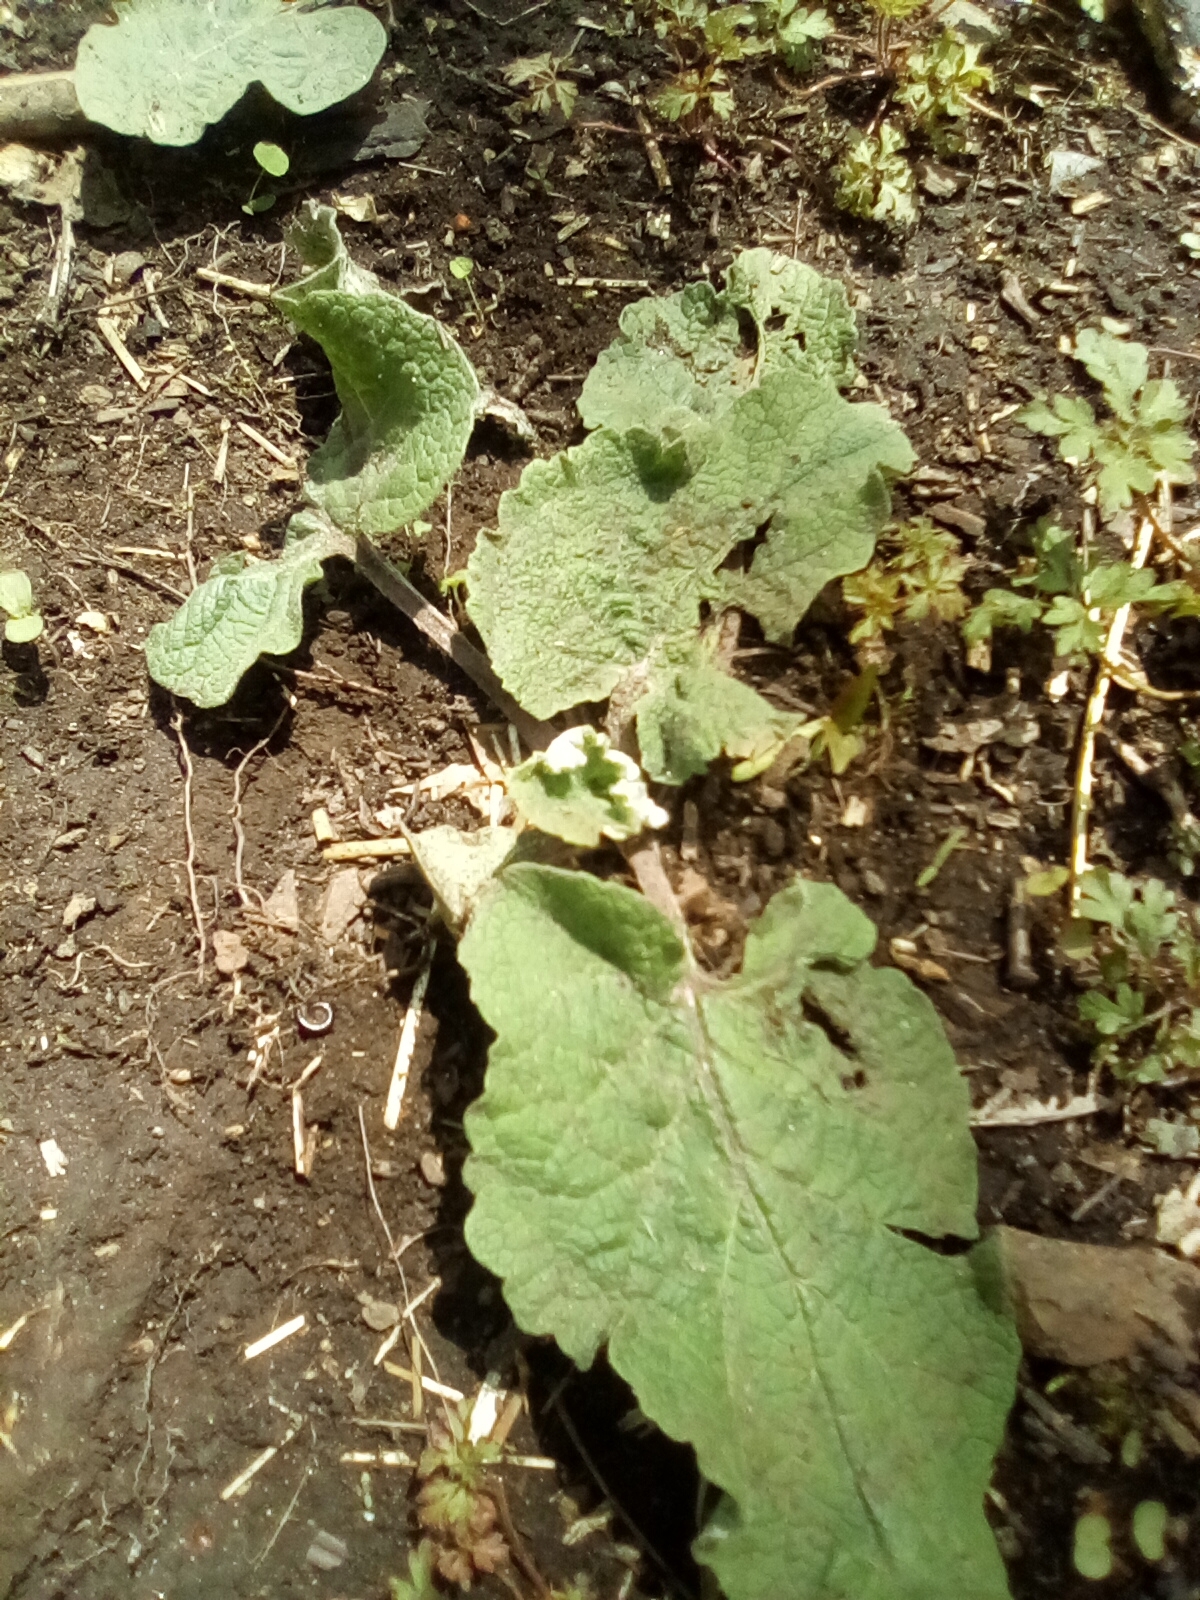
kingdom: Plantae
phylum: Tracheophyta
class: Magnoliopsida
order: Asterales
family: Asteraceae
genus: Arctium
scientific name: Arctium
